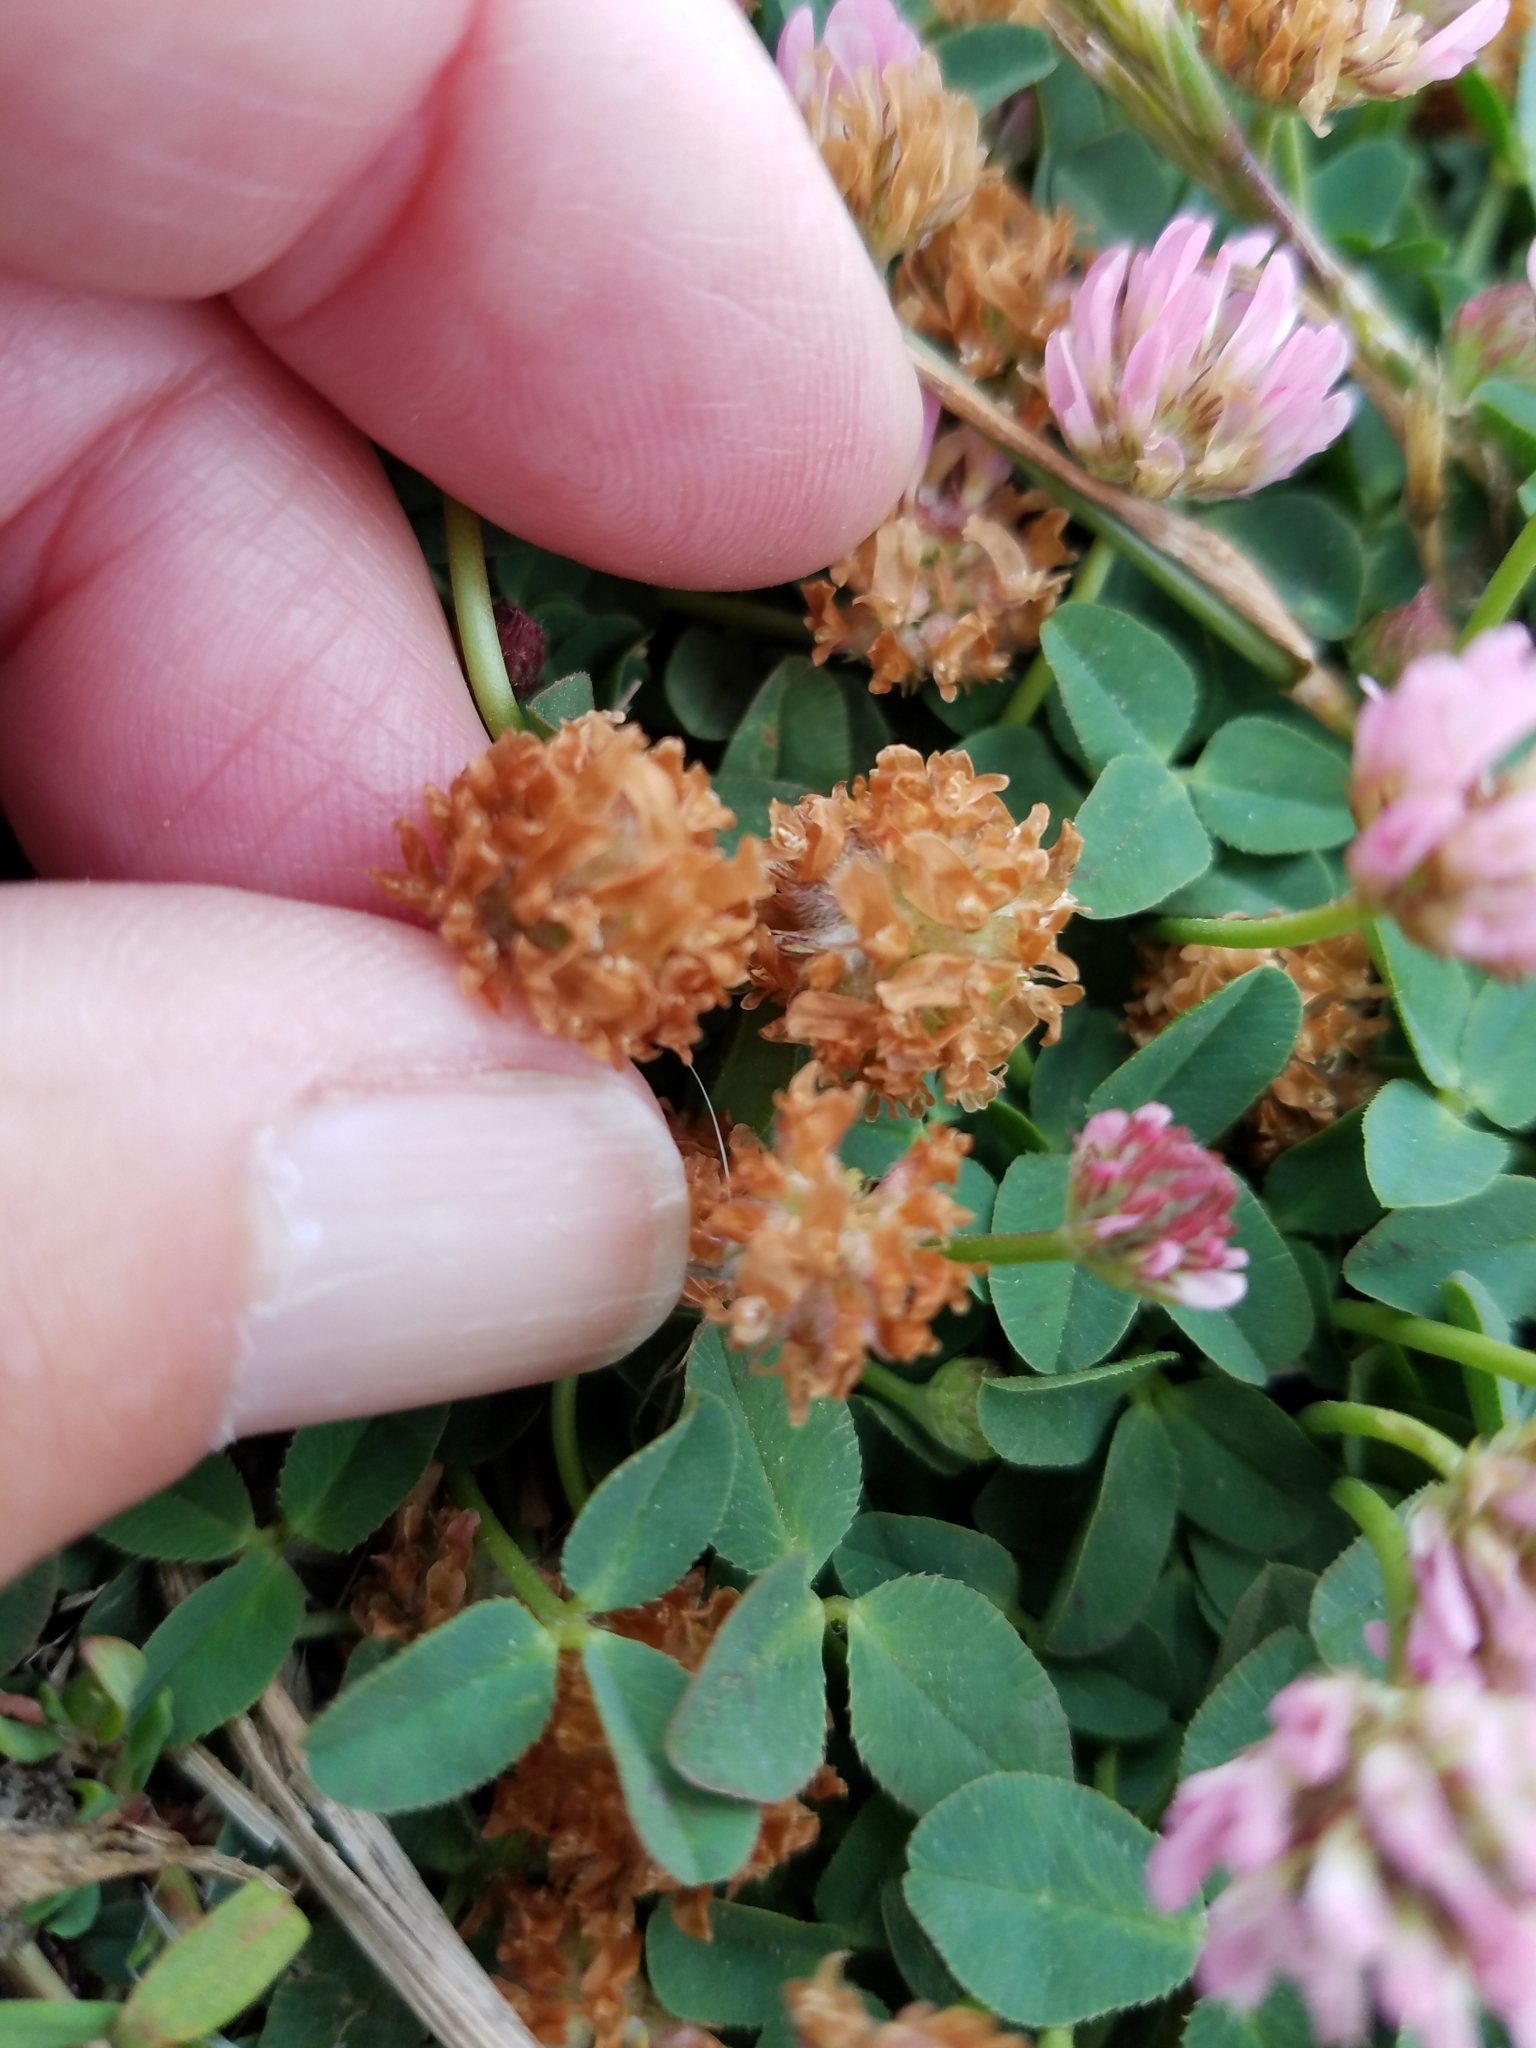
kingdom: Plantae
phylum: Tracheophyta
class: Magnoliopsida
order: Fabales
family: Fabaceae
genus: Trifolium
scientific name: Trifolium fragiferum
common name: Strawberry clover
